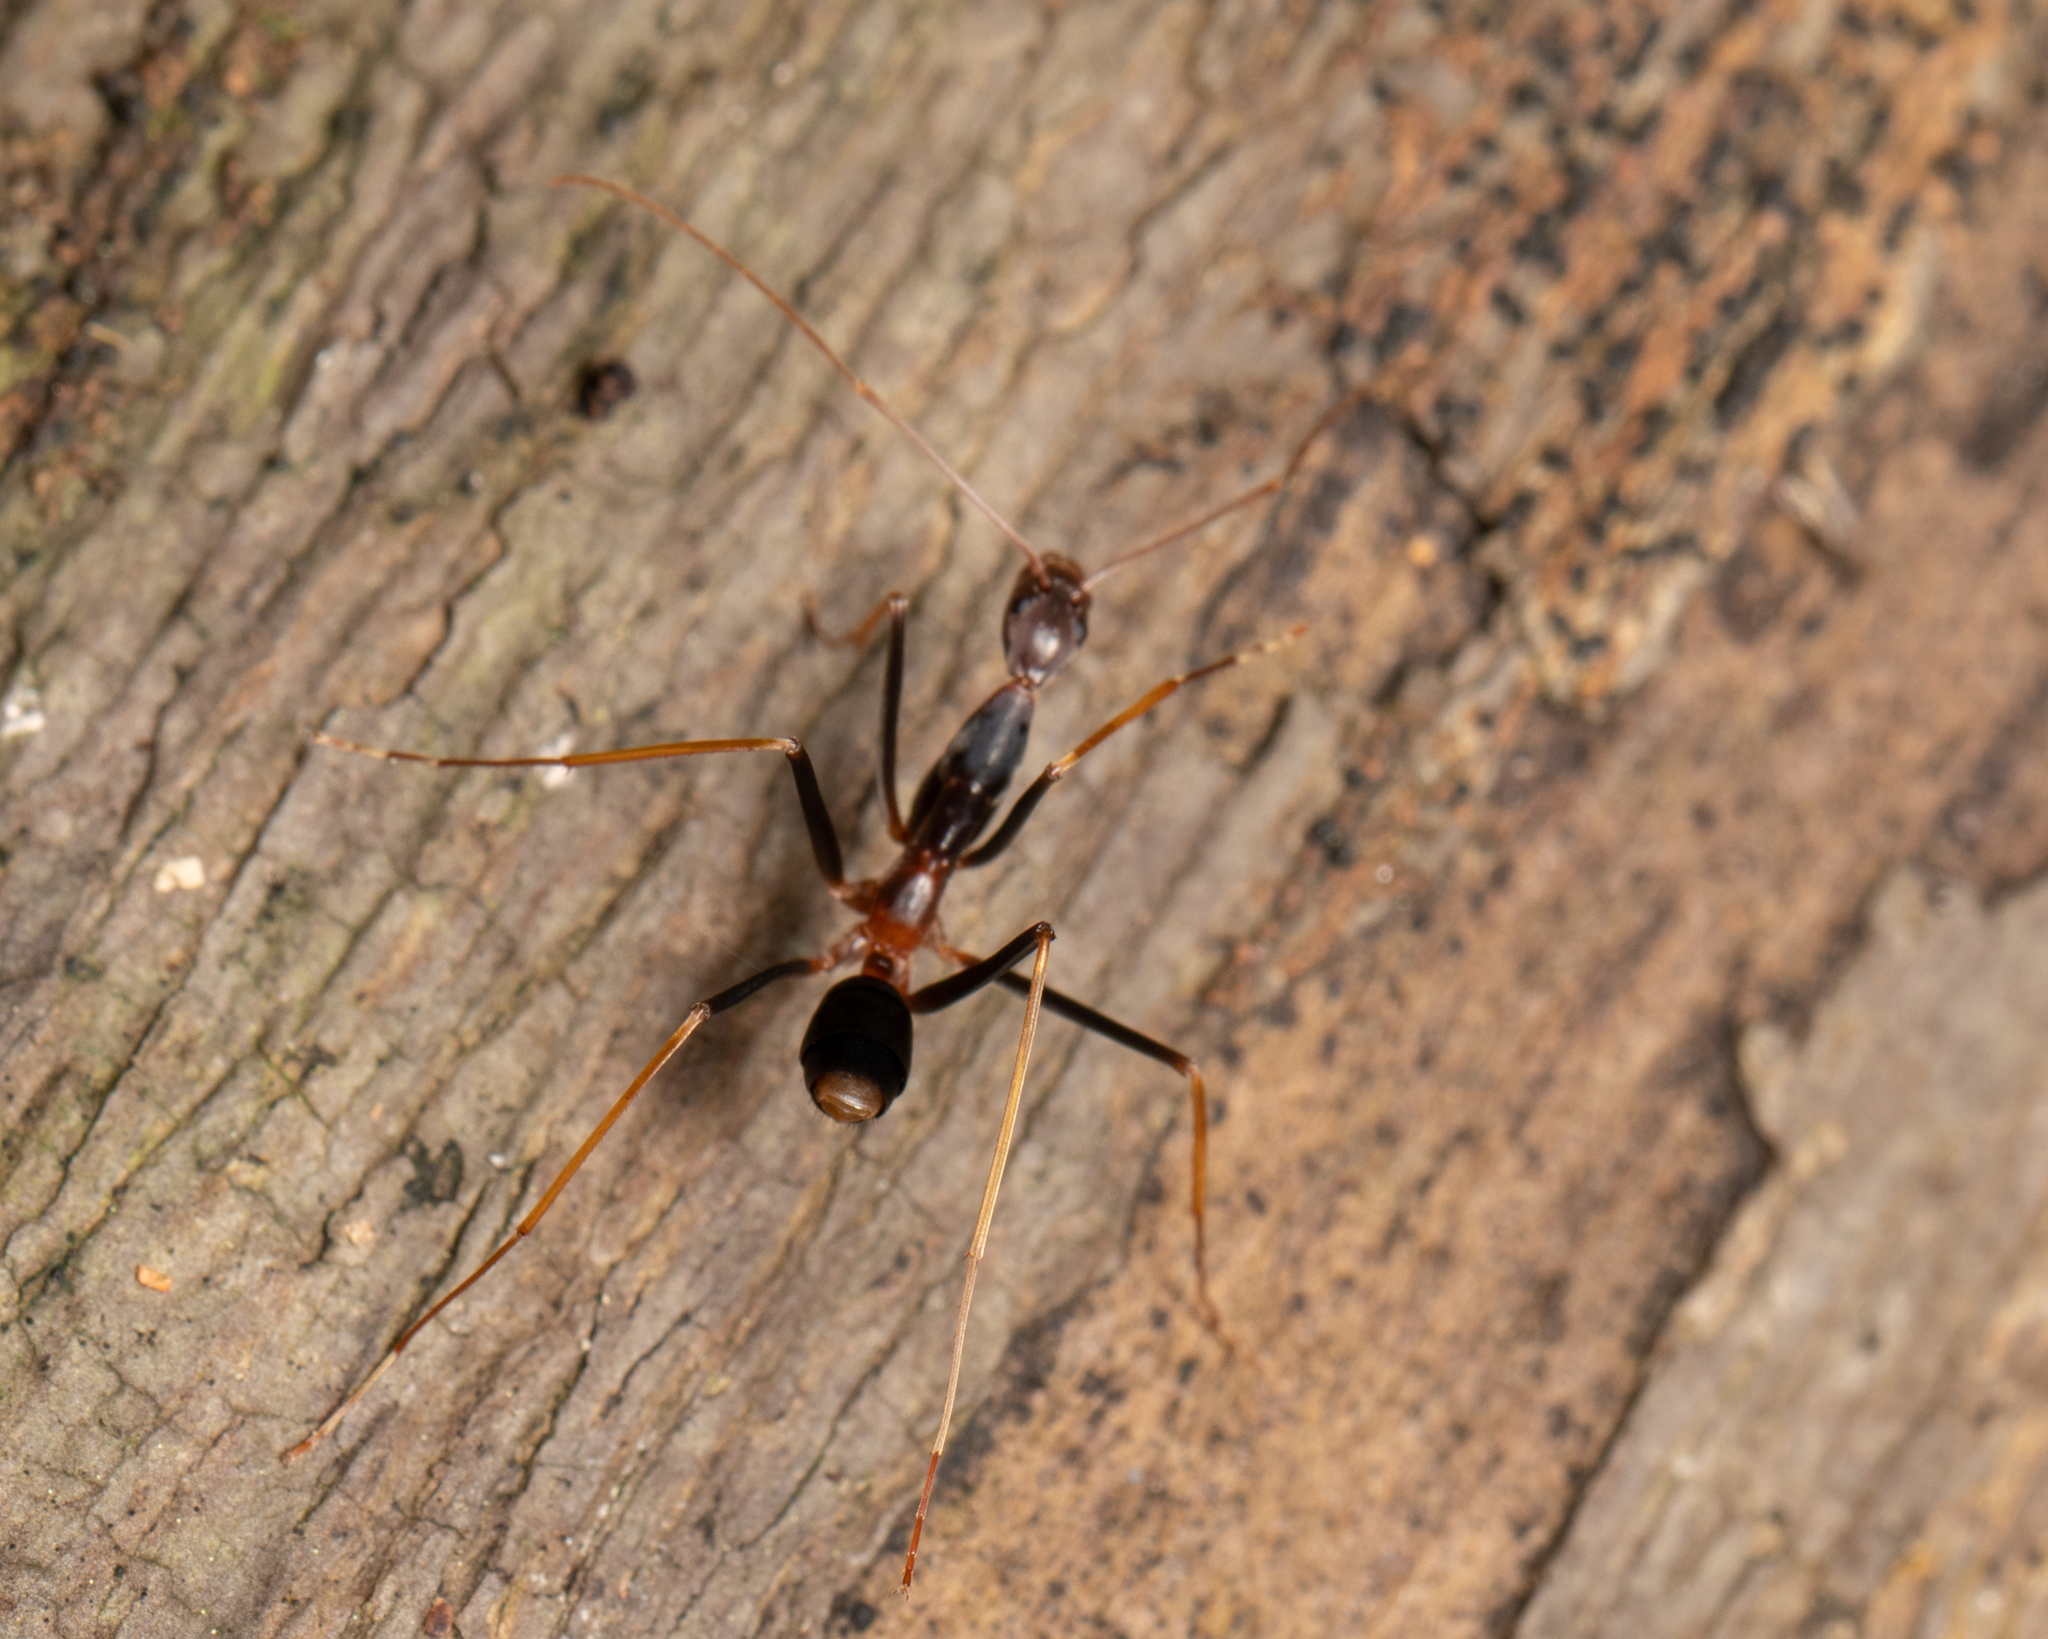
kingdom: Animalia
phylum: Arthropoda
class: Insecta
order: Hymenoptera
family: Formicidae
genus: Leptomyrmex
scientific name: Leptomyrmex rothneyi
